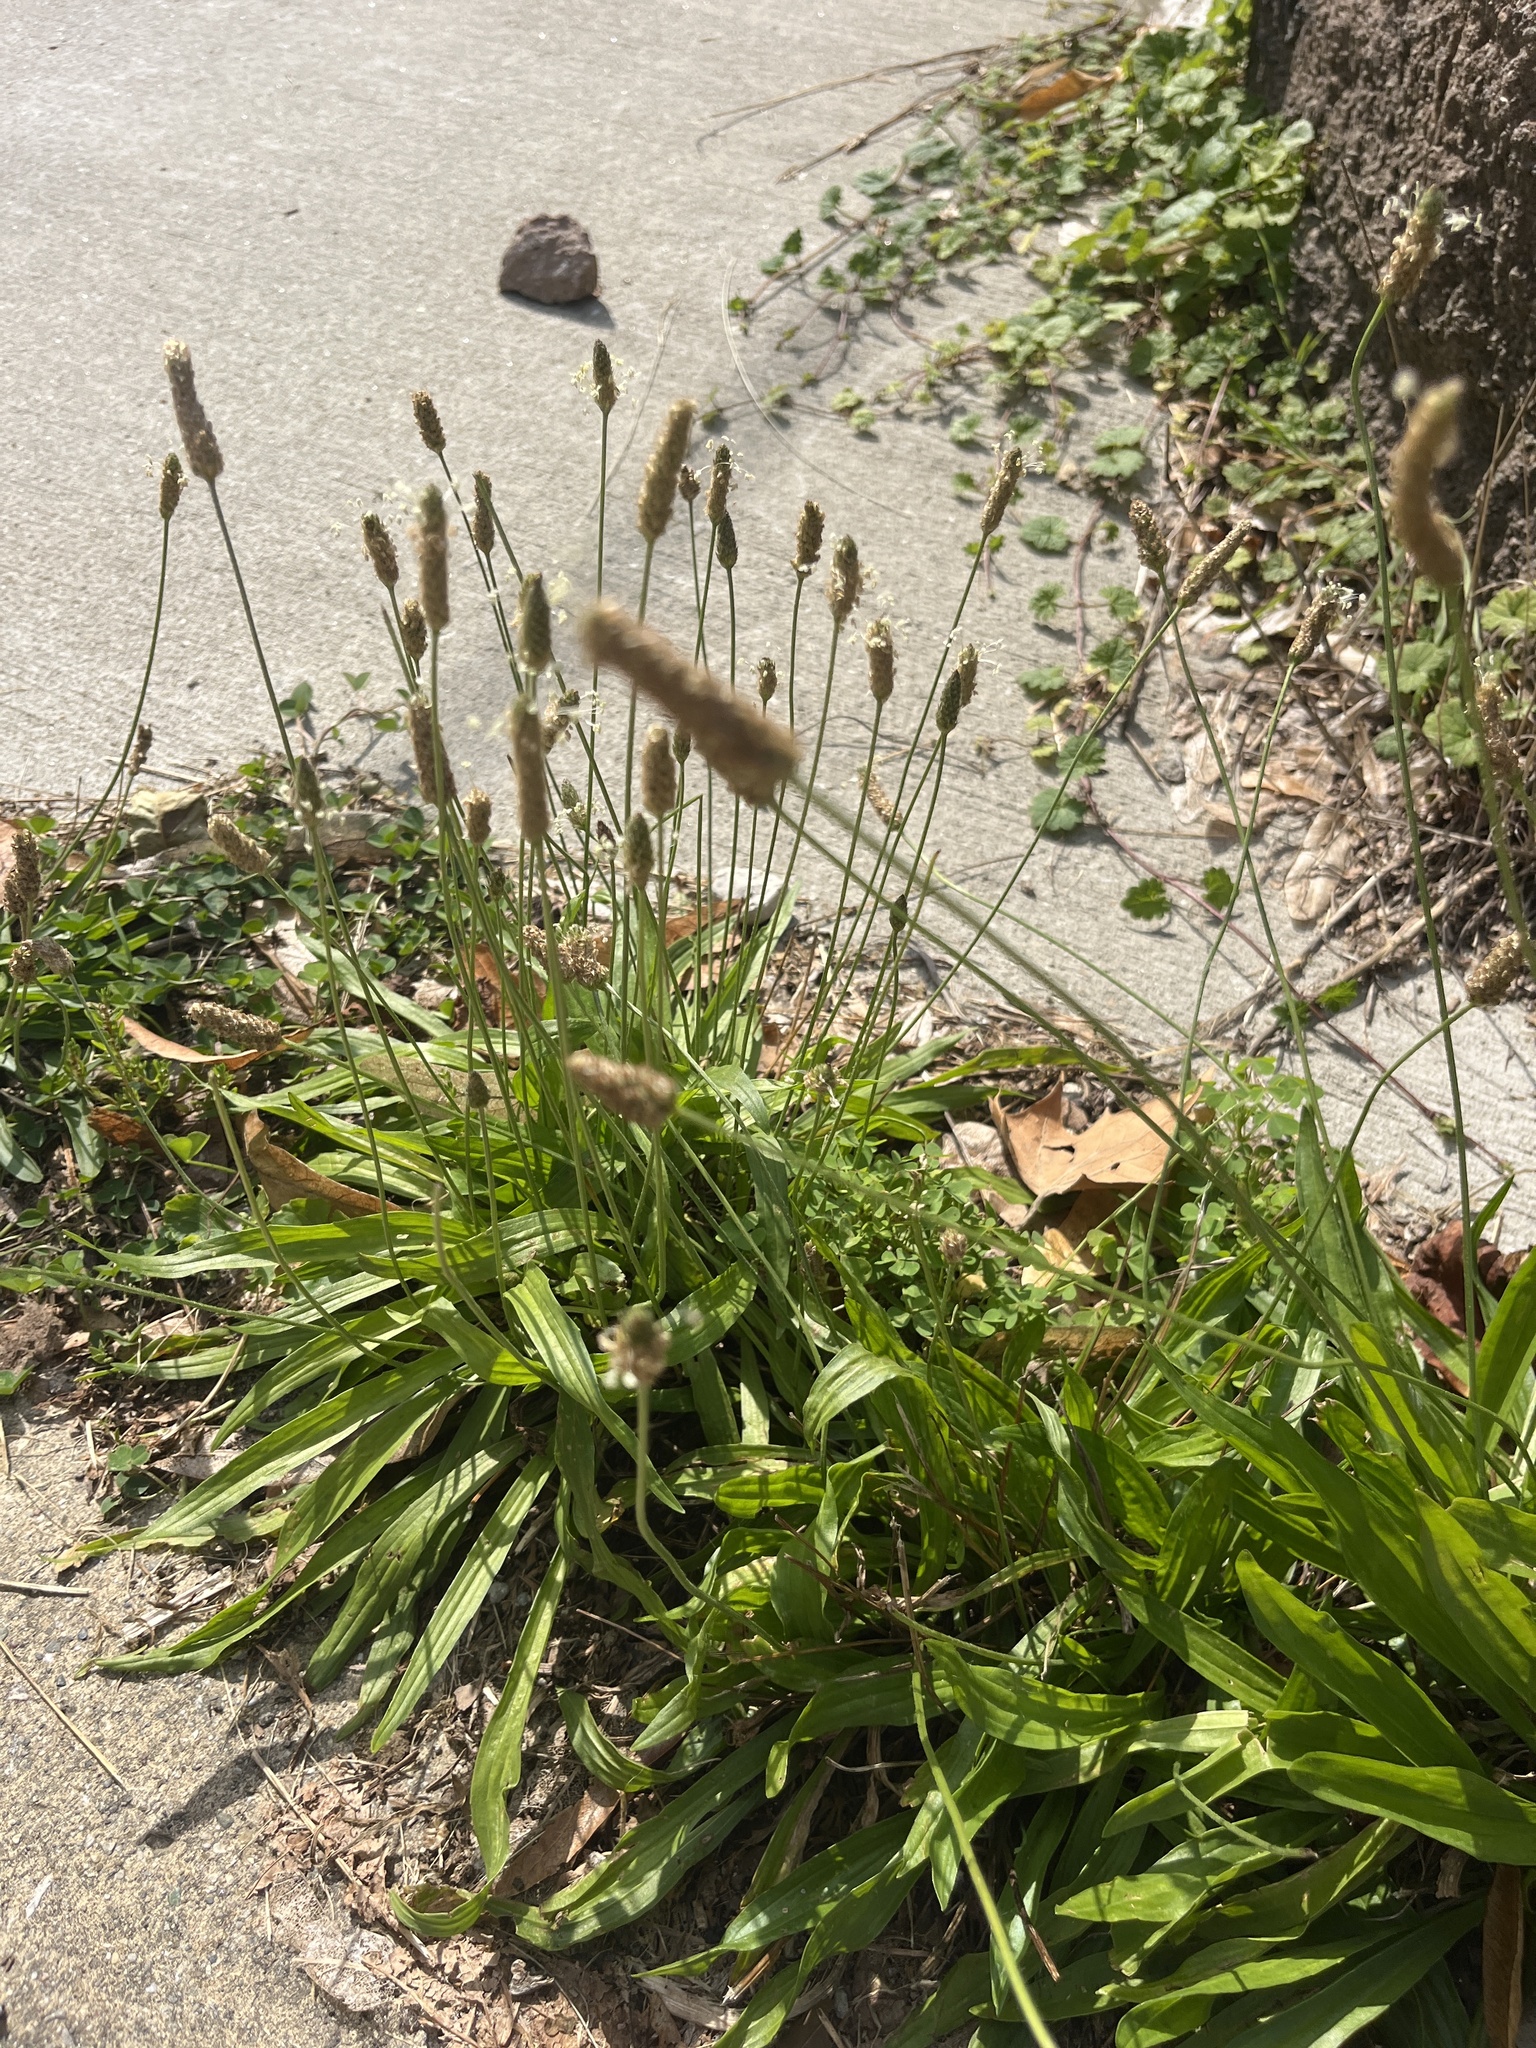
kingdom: Plantae
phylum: Tracheophyta
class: Magnoliopsida
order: Lamiales
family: Plantaginaceae
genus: Plantago
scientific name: Plantago lanceolata
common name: Ribwort plantain
